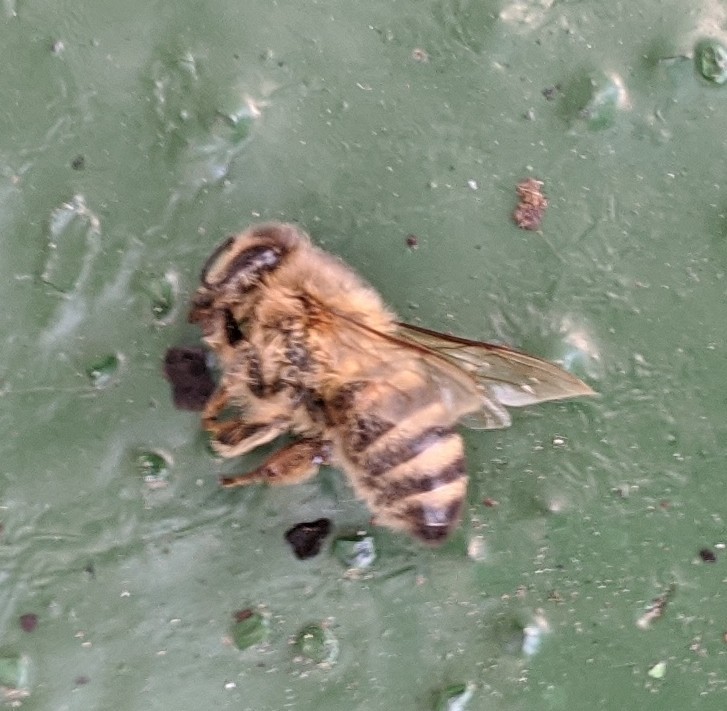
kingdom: Animalia
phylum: Arthropoda
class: Insecta
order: Hymenoptera
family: Apidae
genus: Apis
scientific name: Apis mellifera
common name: Honey bee
